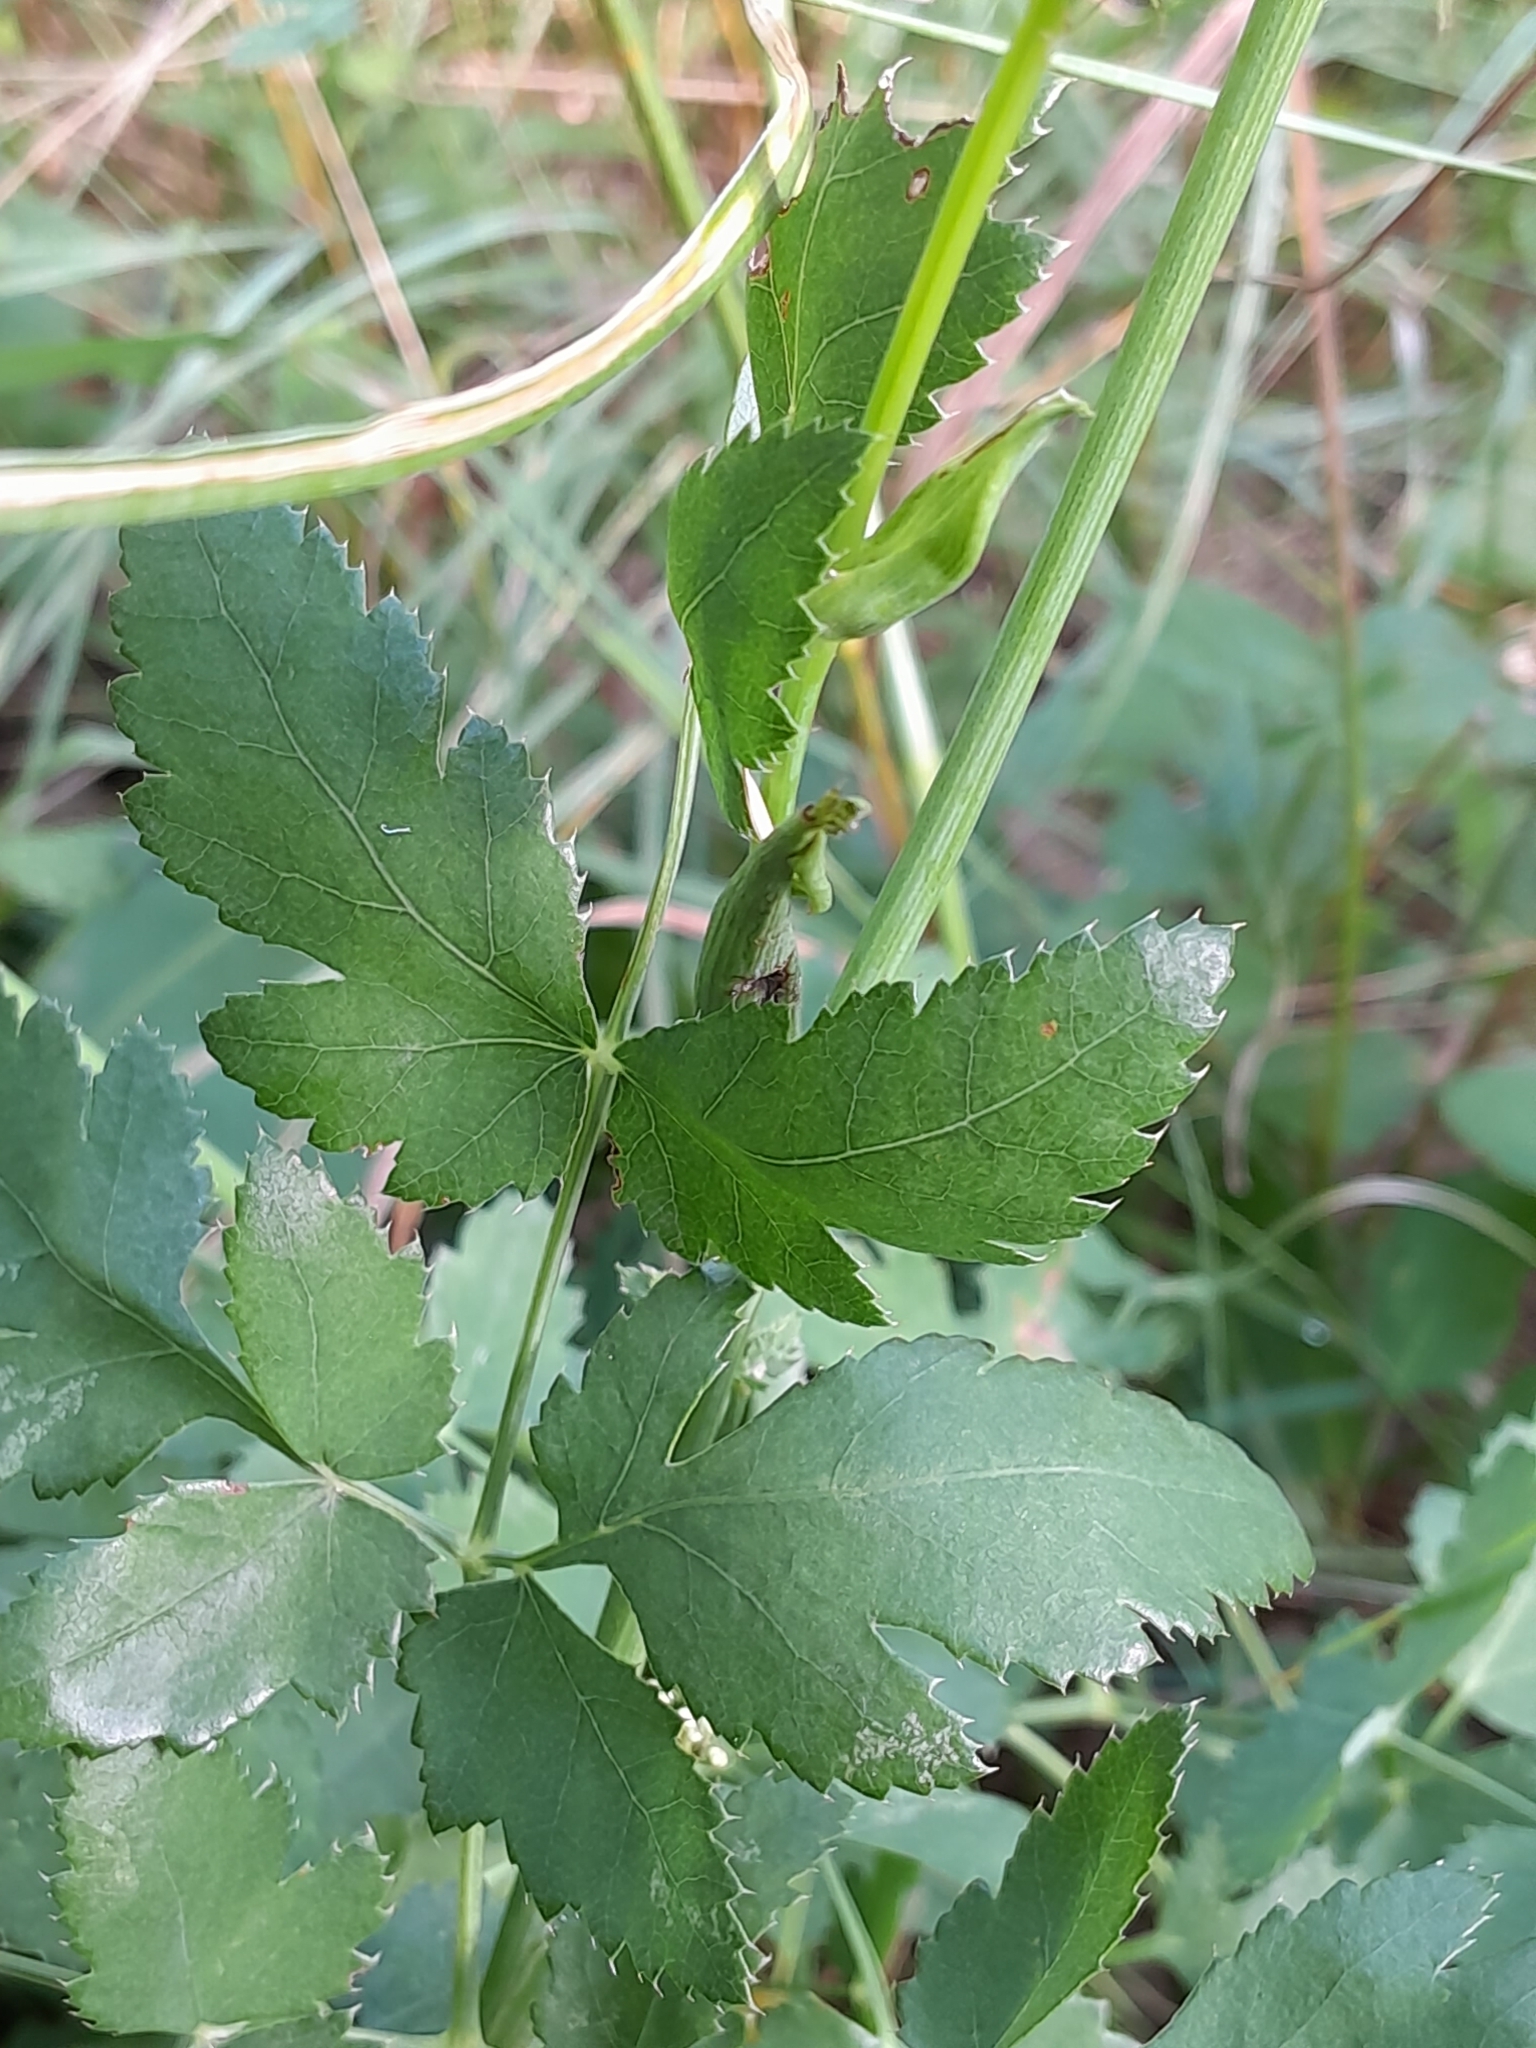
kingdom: Plantae
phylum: Tracheophyta
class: Magnoliopsida
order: Apiales
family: Apiaceae
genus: Cervaria
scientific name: Cervaria rivini
